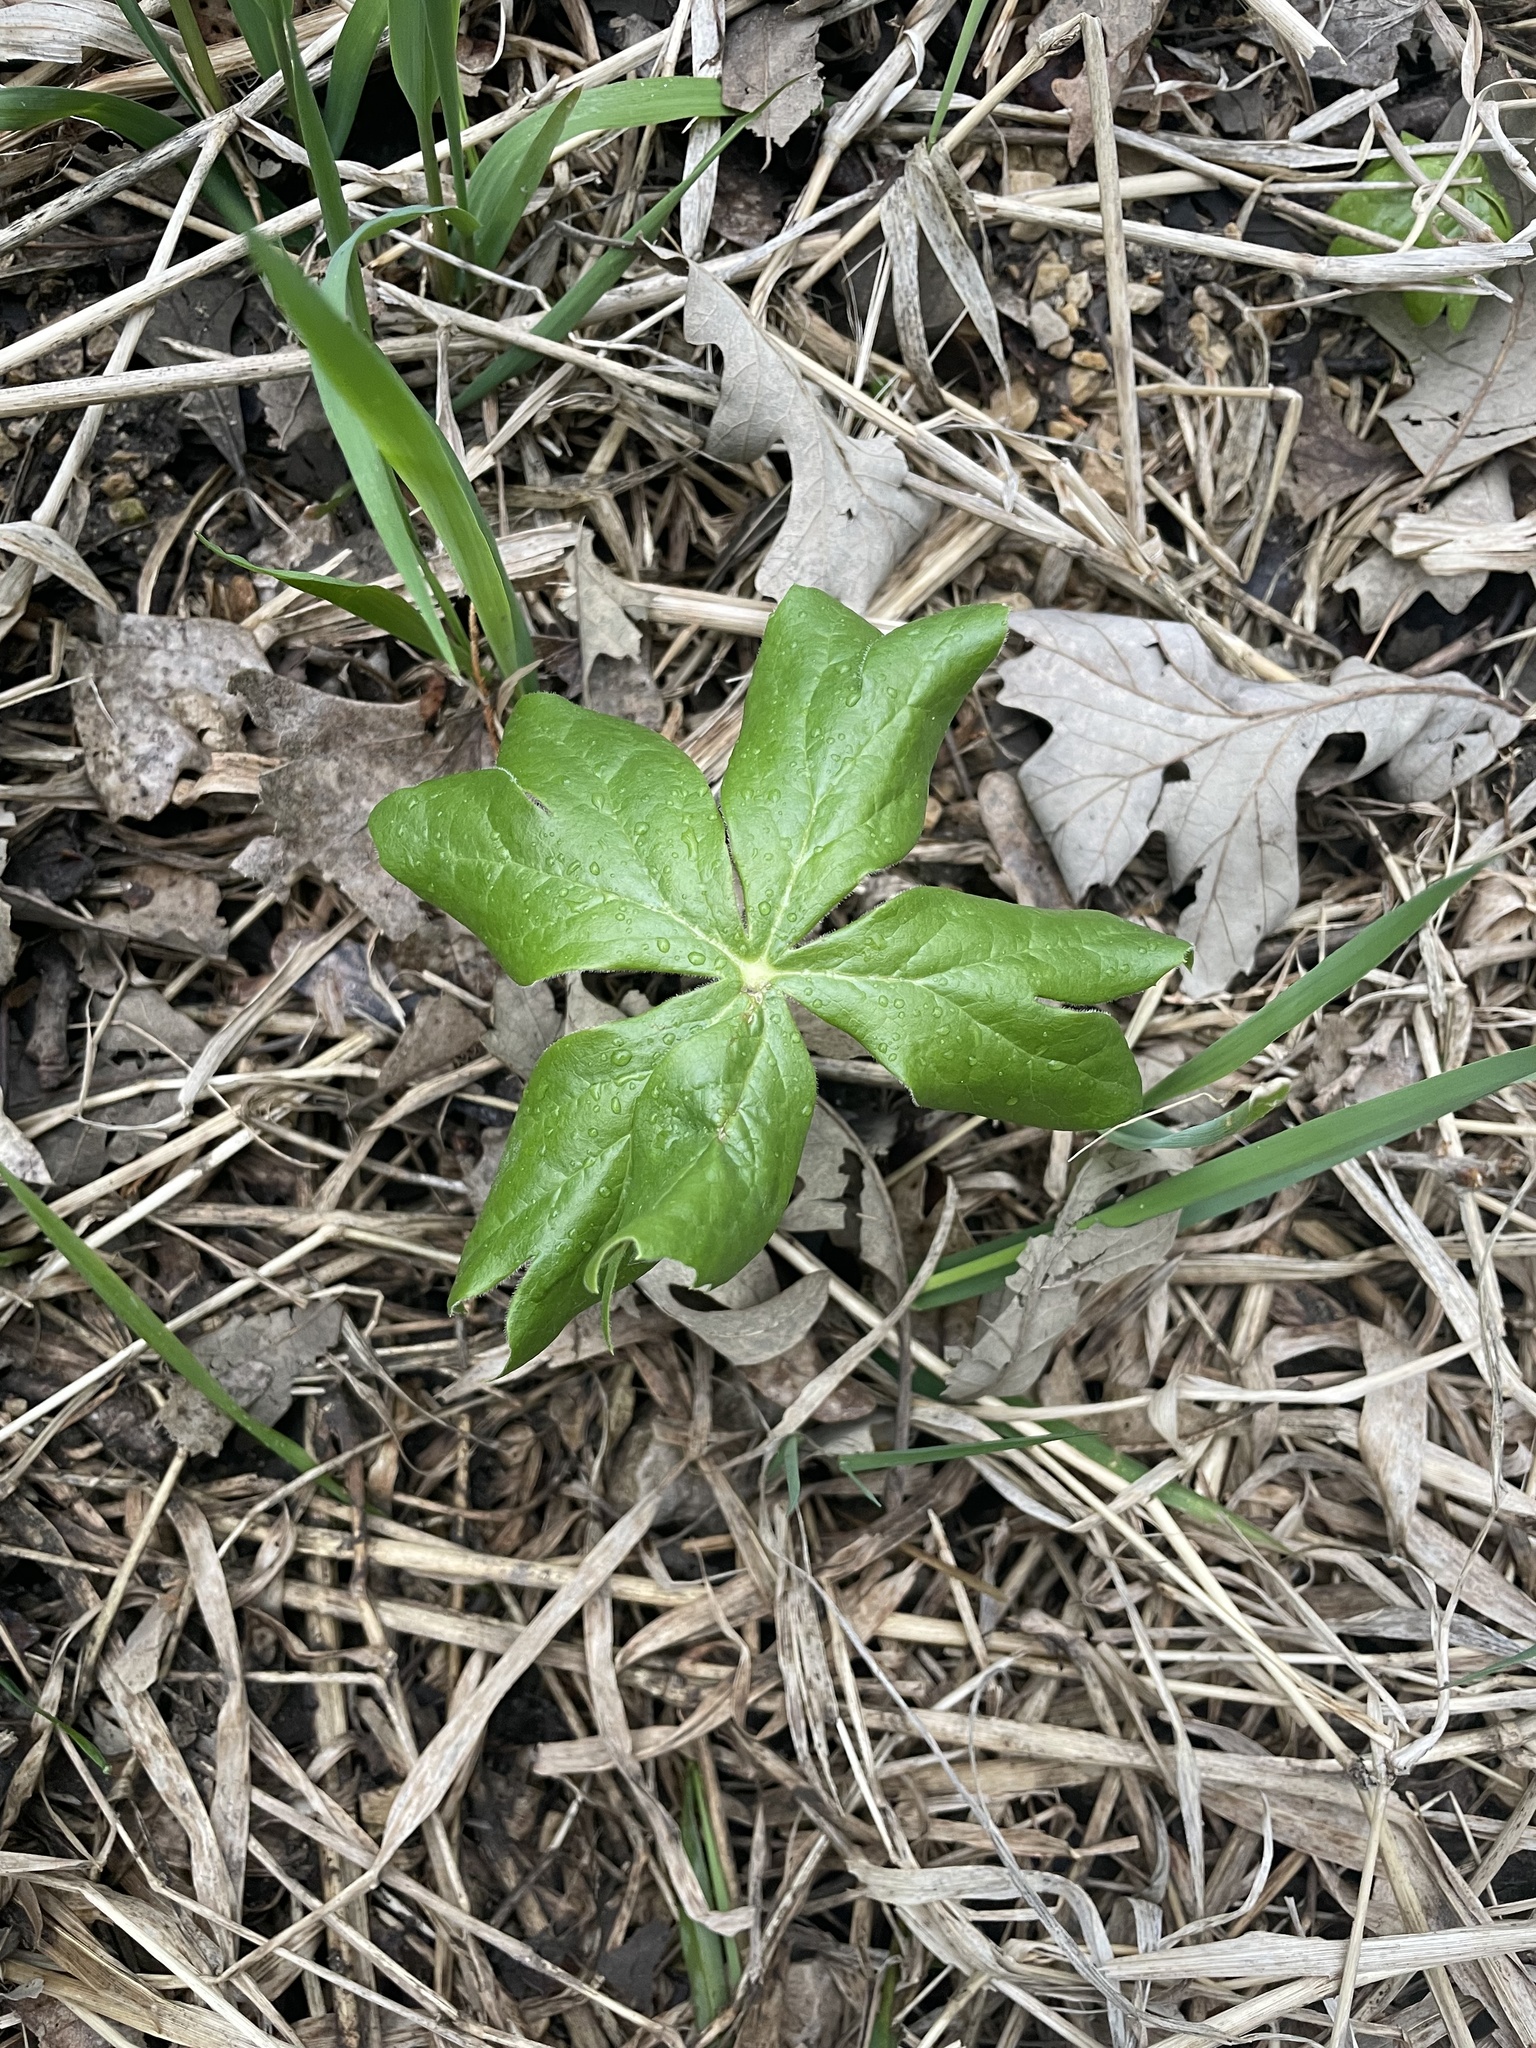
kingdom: Plantae
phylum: Tracheophyta
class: Magnoliopsida
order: Ranunculales
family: Berberidaceae
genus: Podophyllum
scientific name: Podophyllum peltatum
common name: Wild mandrake
